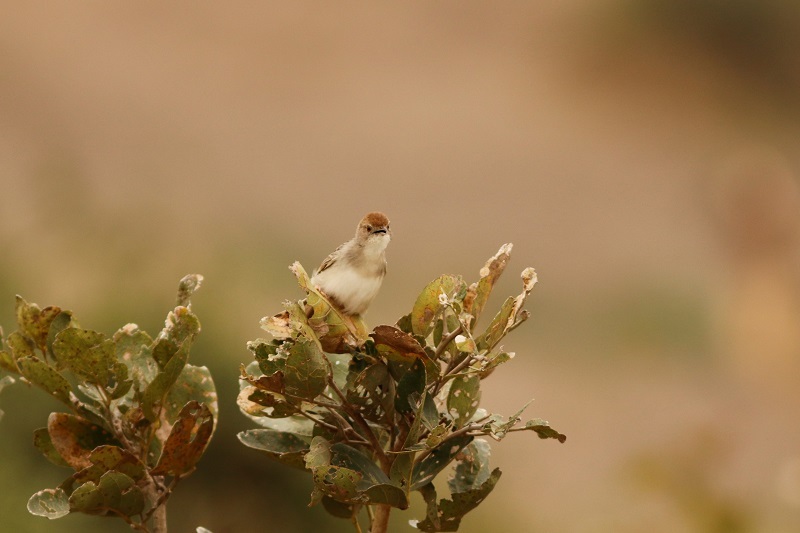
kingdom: Animalia
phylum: Chordata
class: Aves
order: Passeriformes
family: Cisticolidae
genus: Cisticola
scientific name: Cisticola chiniana
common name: Rattling cisticola
